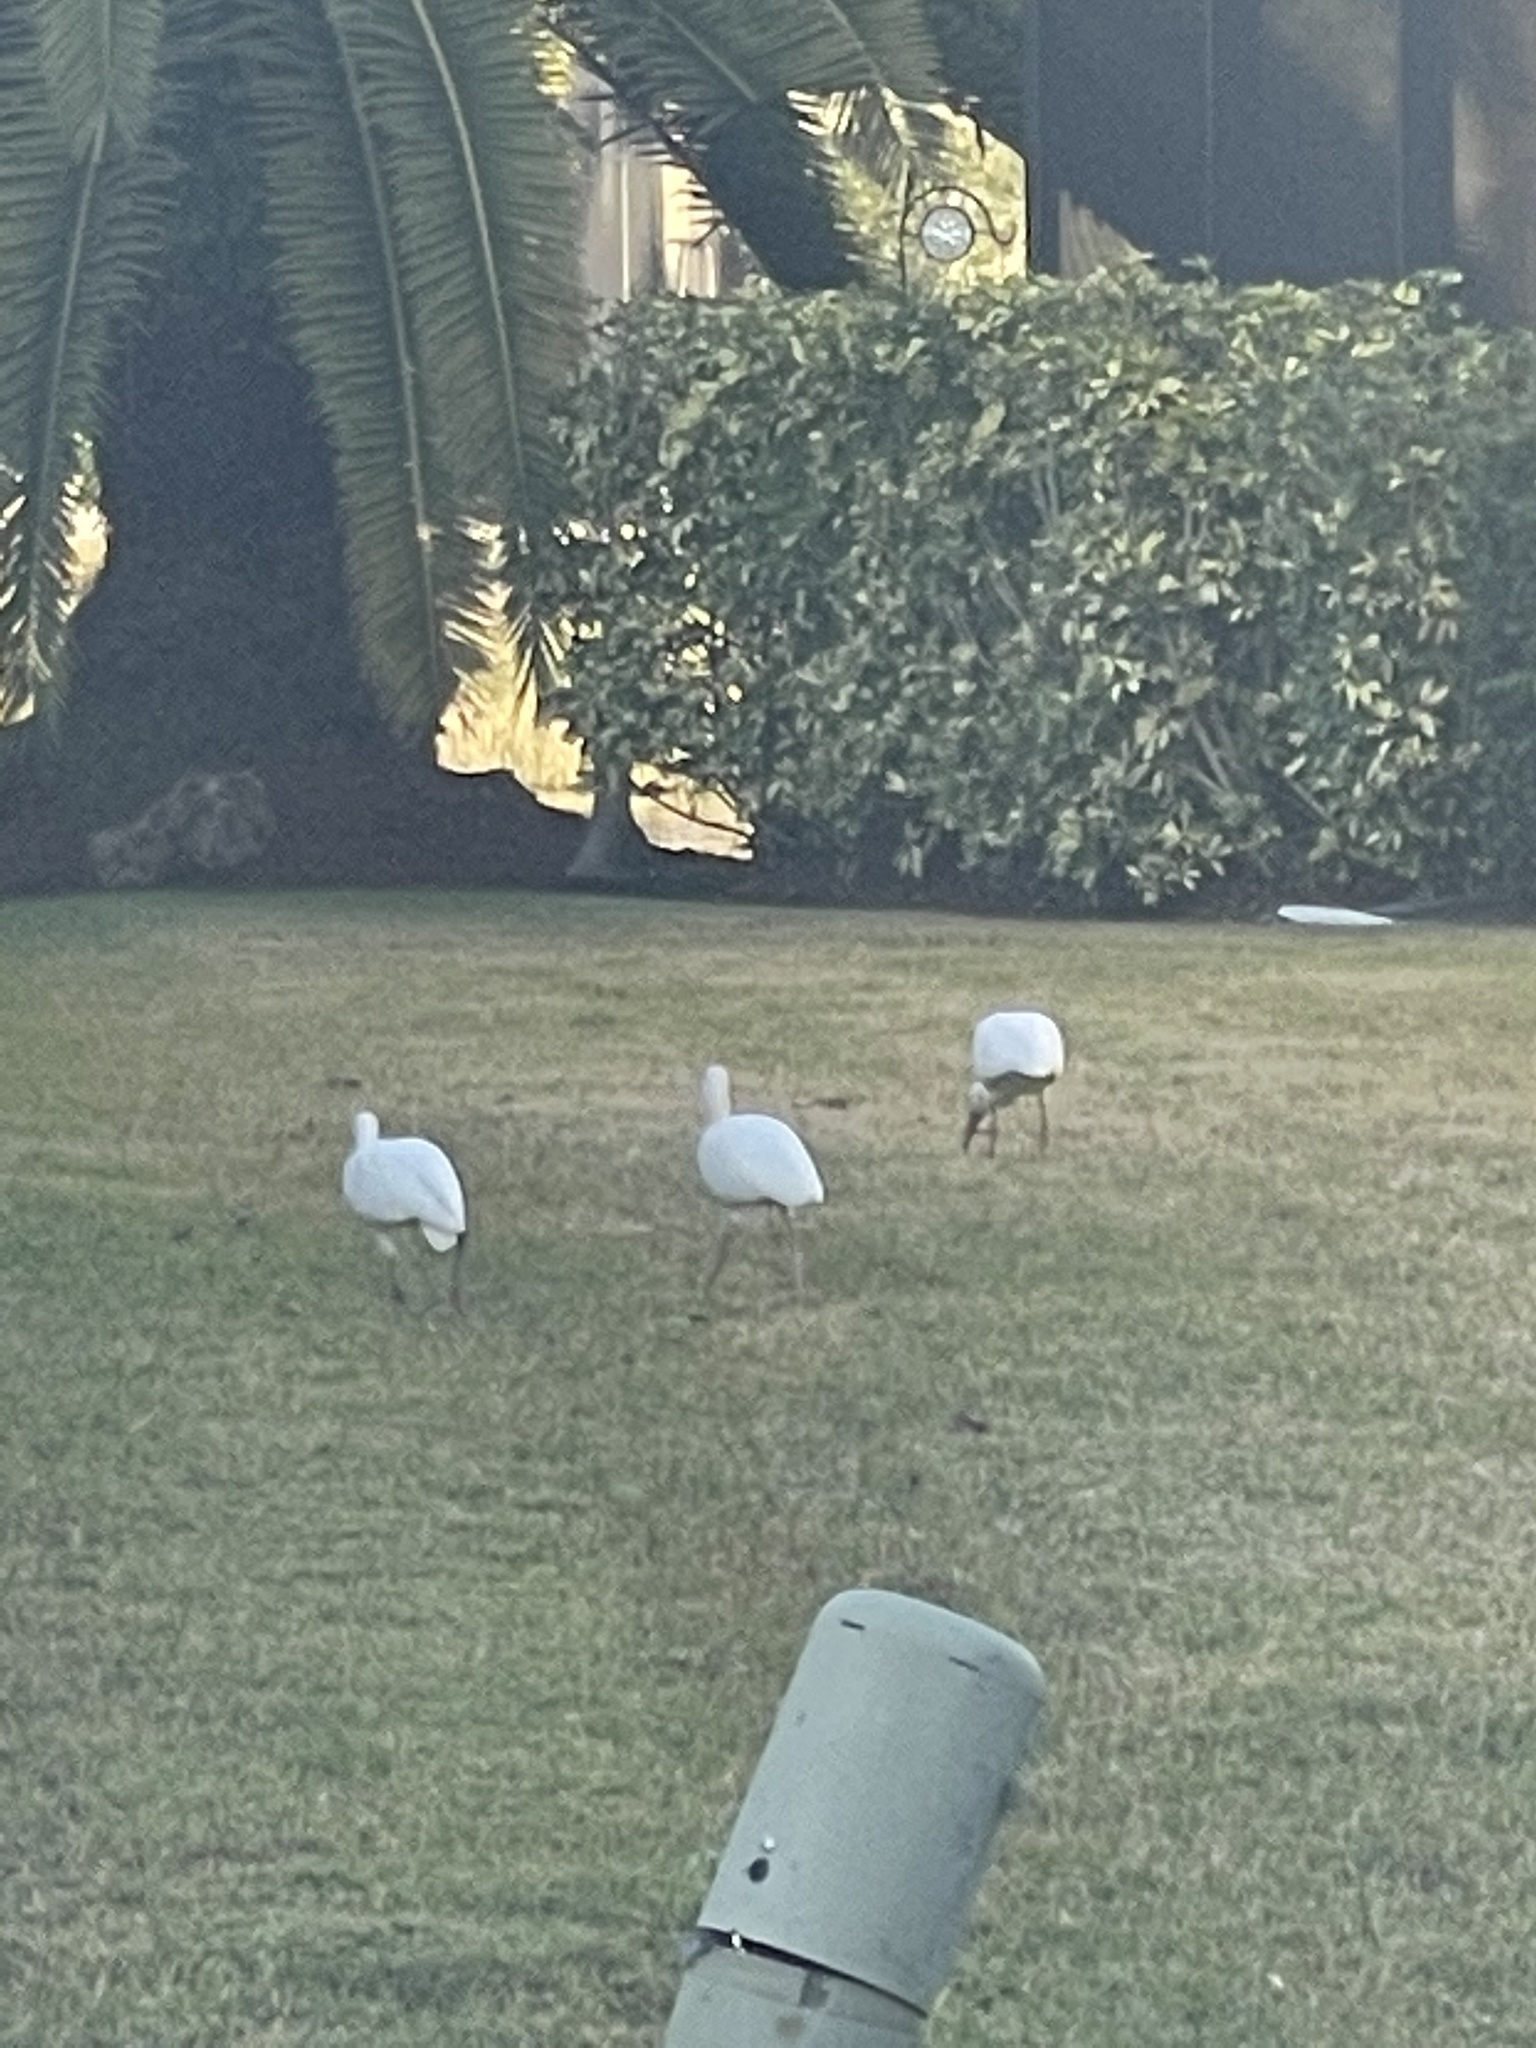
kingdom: Animalia
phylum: Chordata
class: Aves
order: Pelecaniformes
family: Threskiornithidae
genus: Eudocimus
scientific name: Eudocimus albus
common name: White ibis
